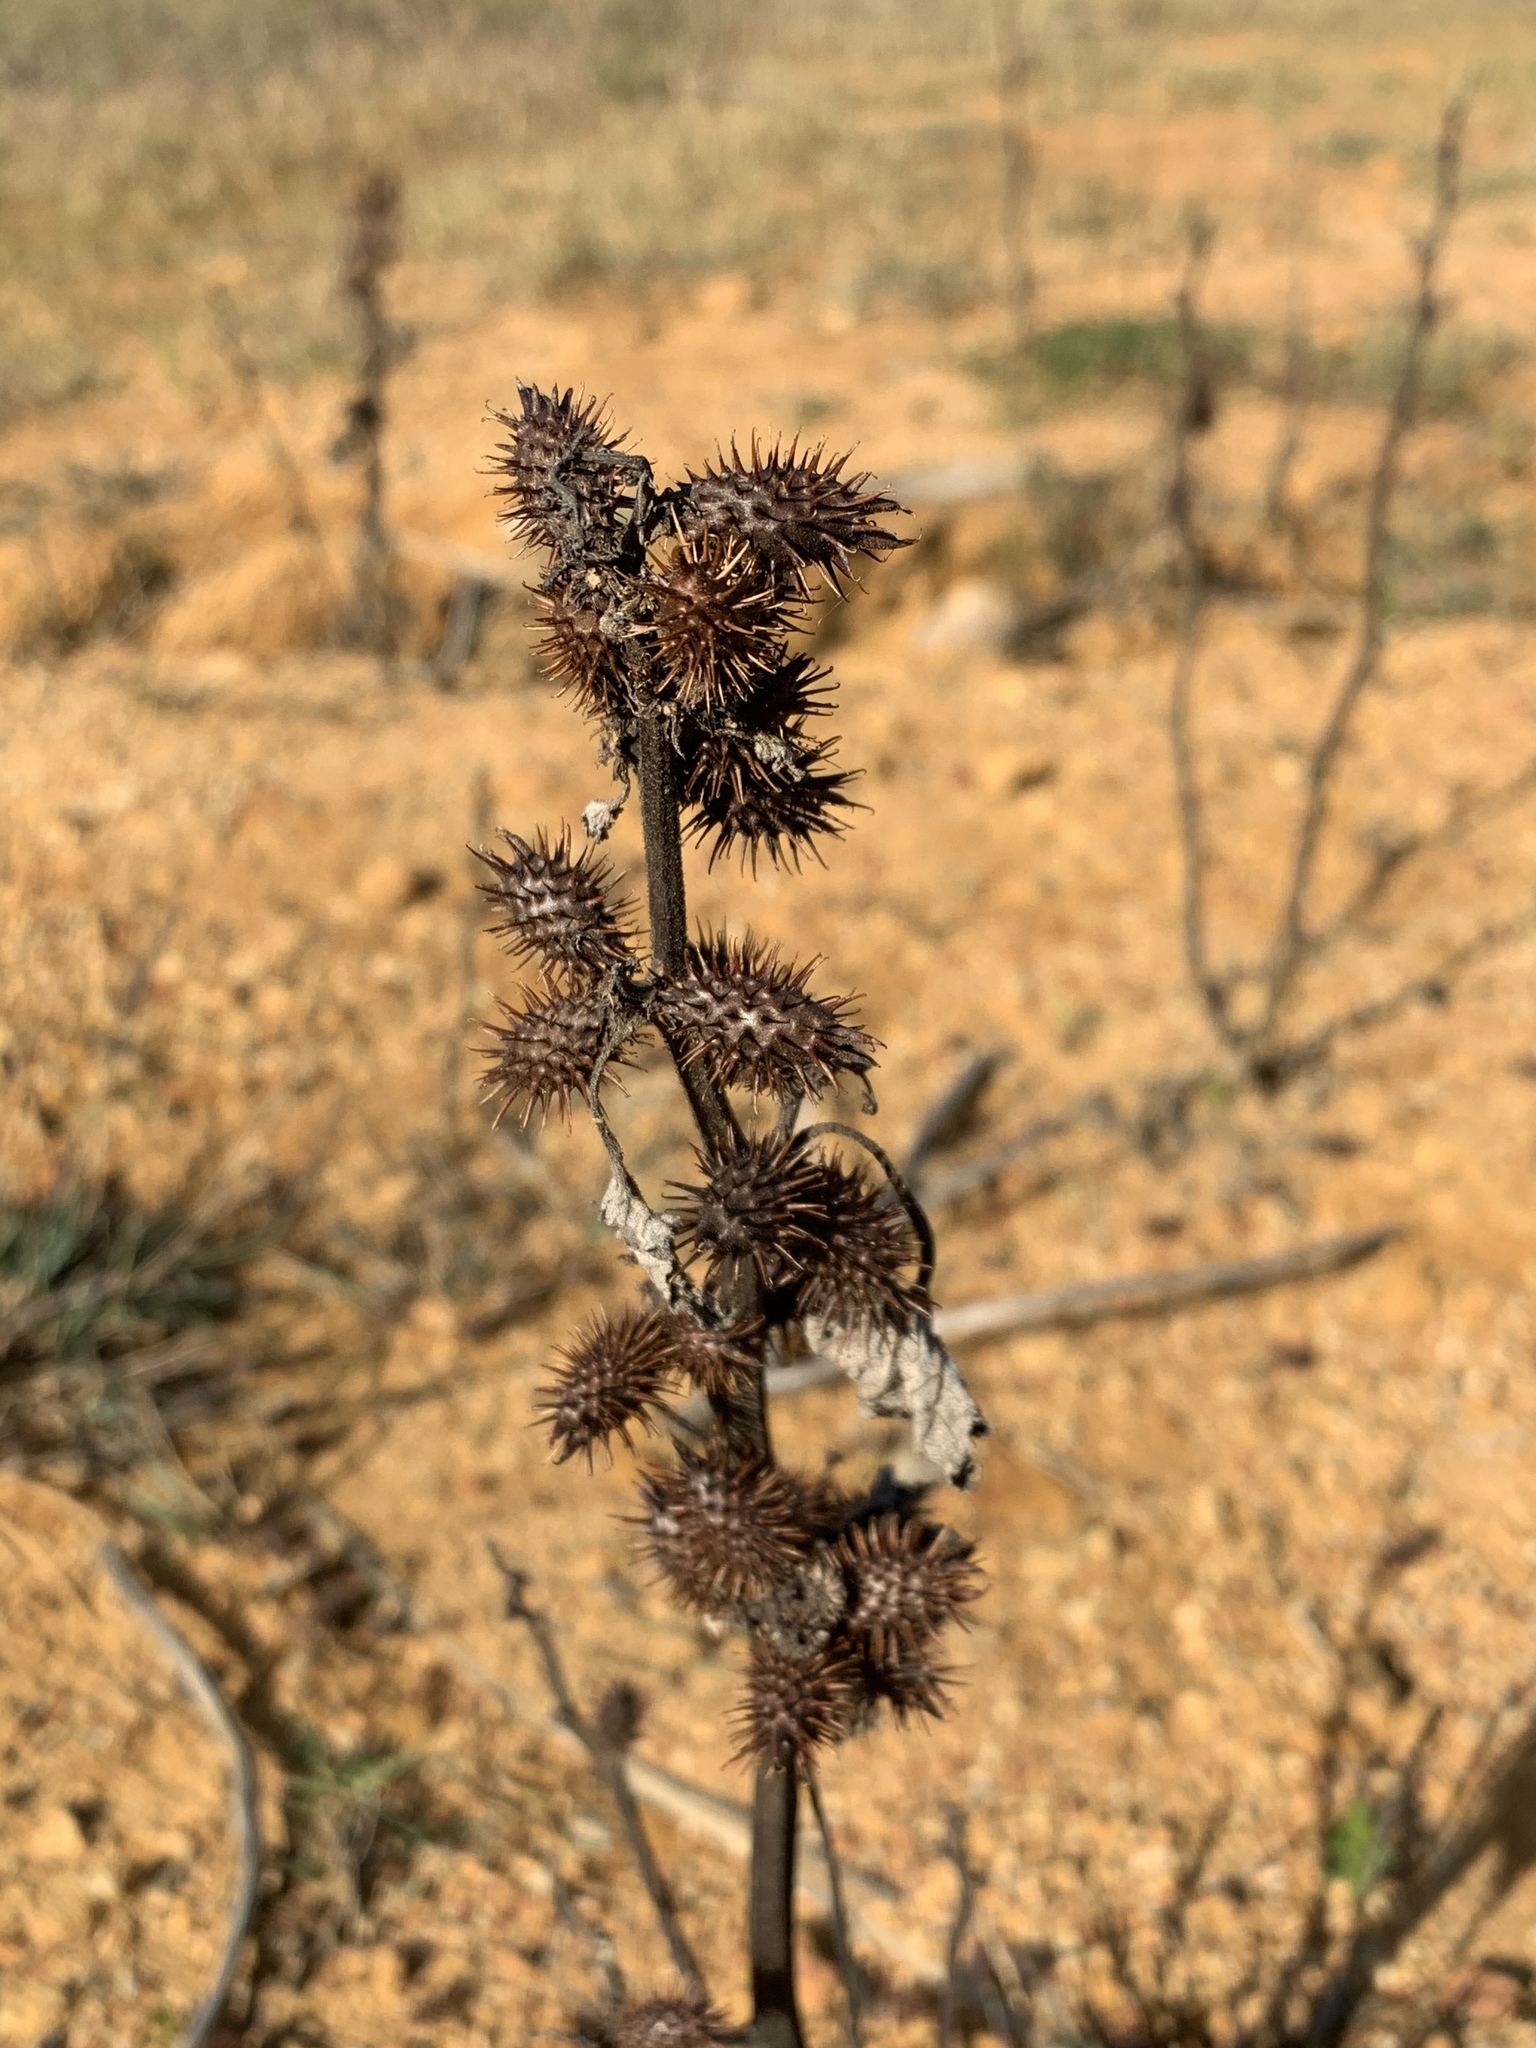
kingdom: Plantae
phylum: Tracheophyta
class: Magnoliopsida
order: Asterales
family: Asteraceae
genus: Xanthium
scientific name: Xanthium spinosum
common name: Spiny cocklebur
